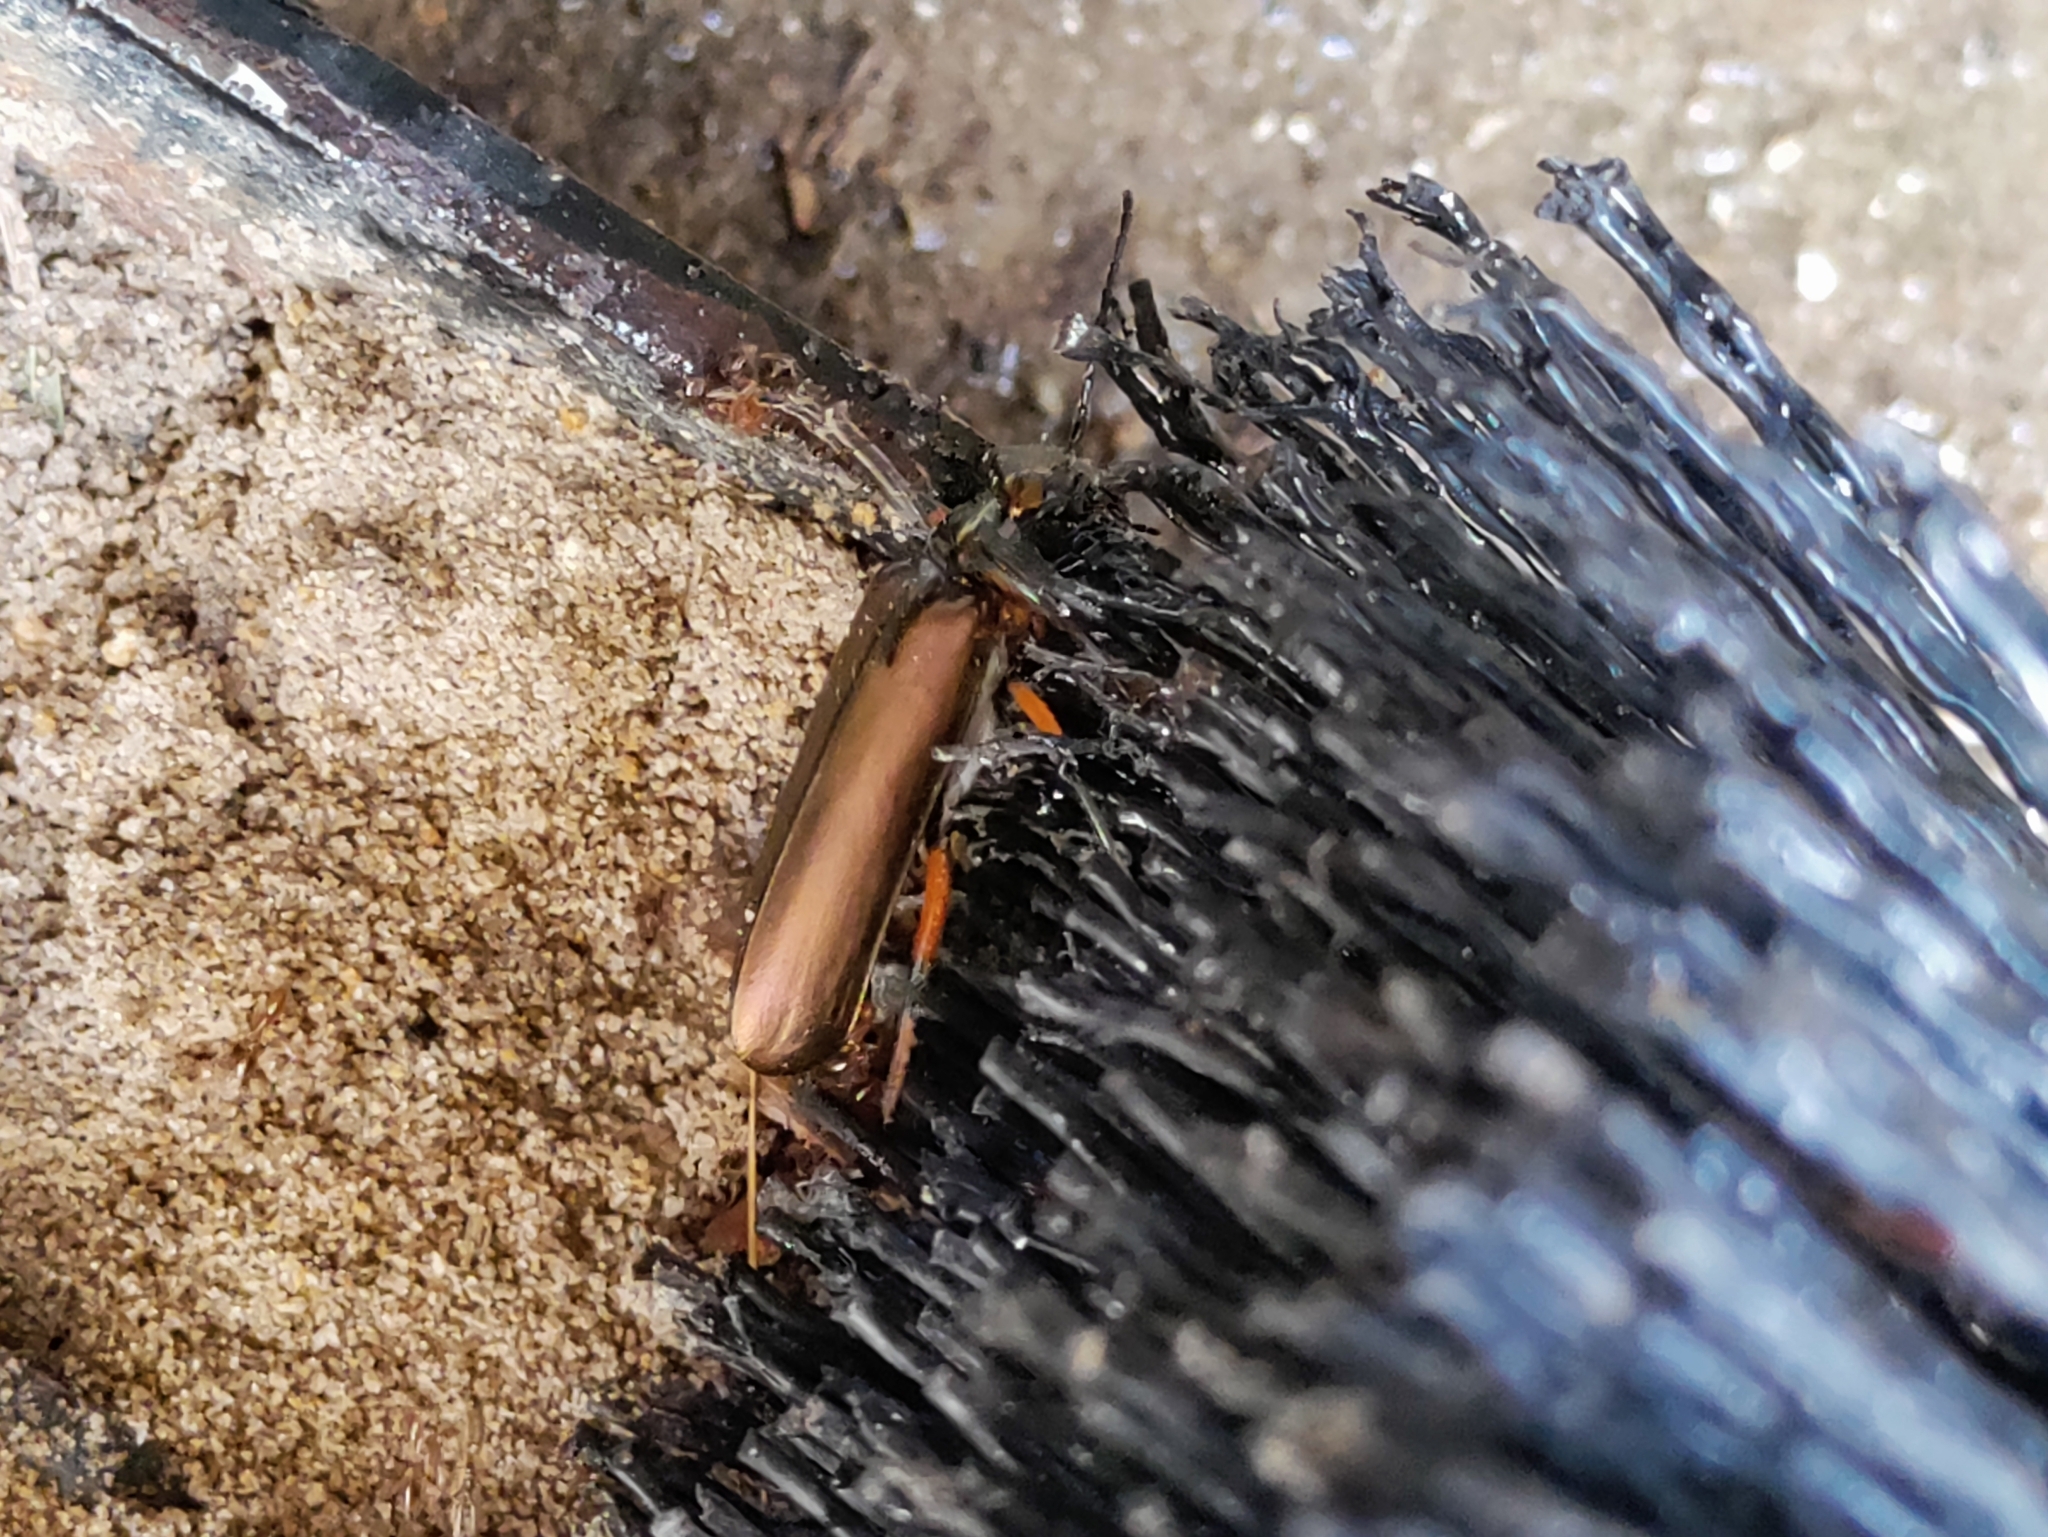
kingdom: Animalia
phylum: Arthropoda
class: Insecta
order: Coleoptera
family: Meloidae
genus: Lytta
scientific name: Lytta polita
